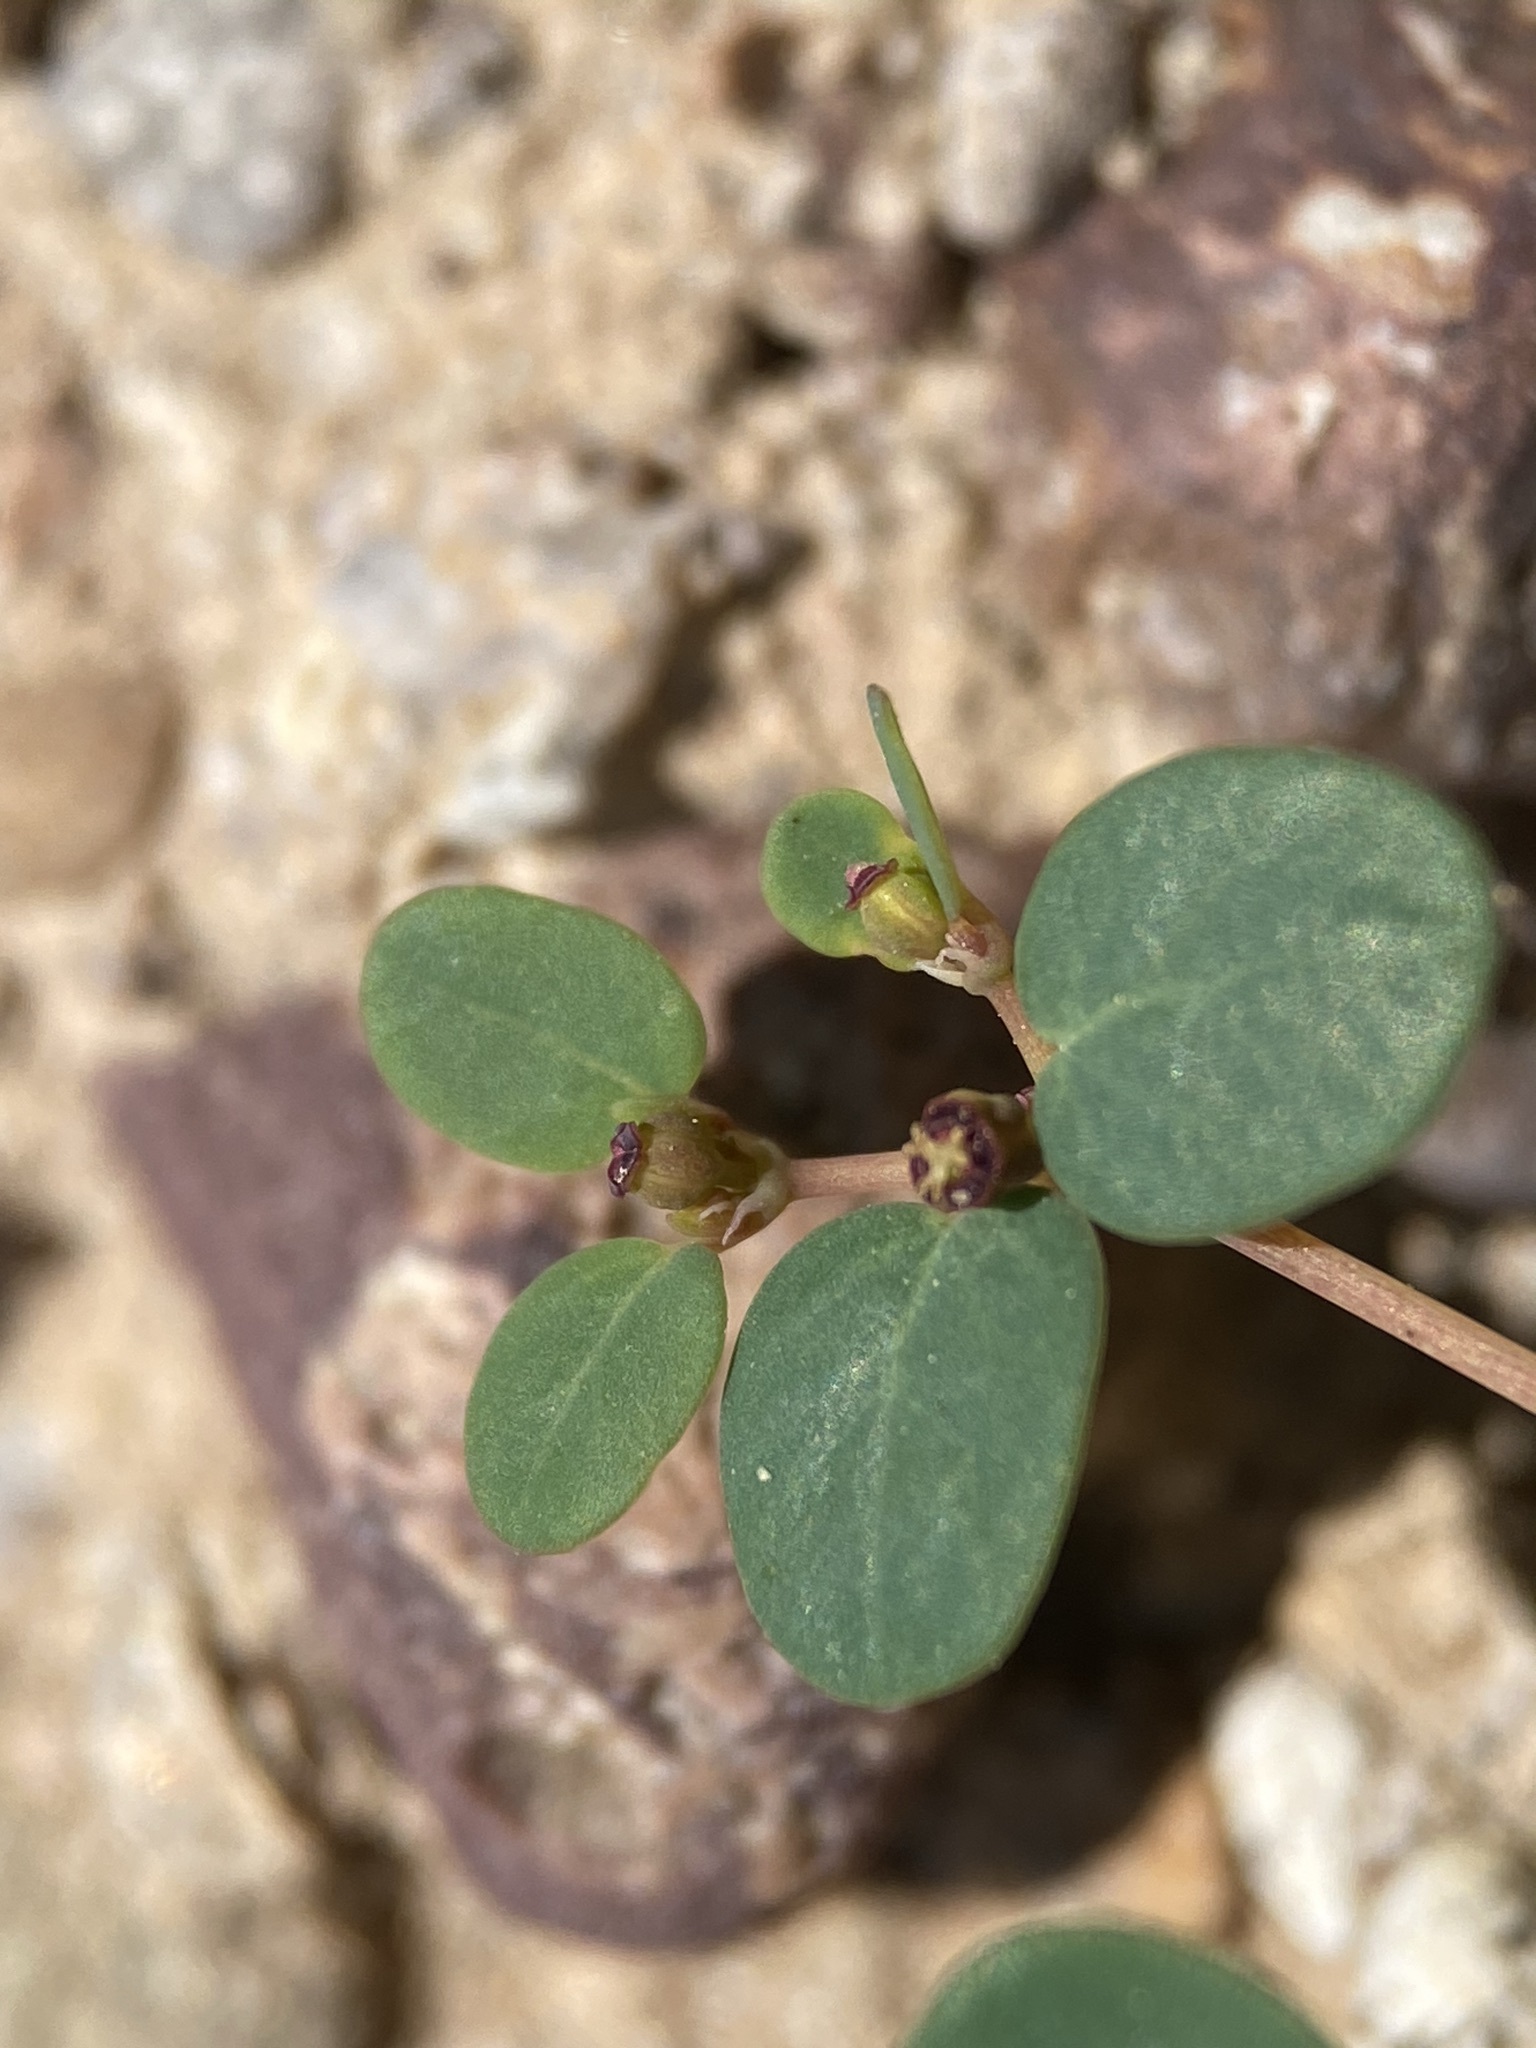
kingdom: Plantae
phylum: Tracheophyta
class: Magnoliopsida
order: Malpighiales
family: Euphorbiaceae
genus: Euphorbia
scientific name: Euphorbia simulans
